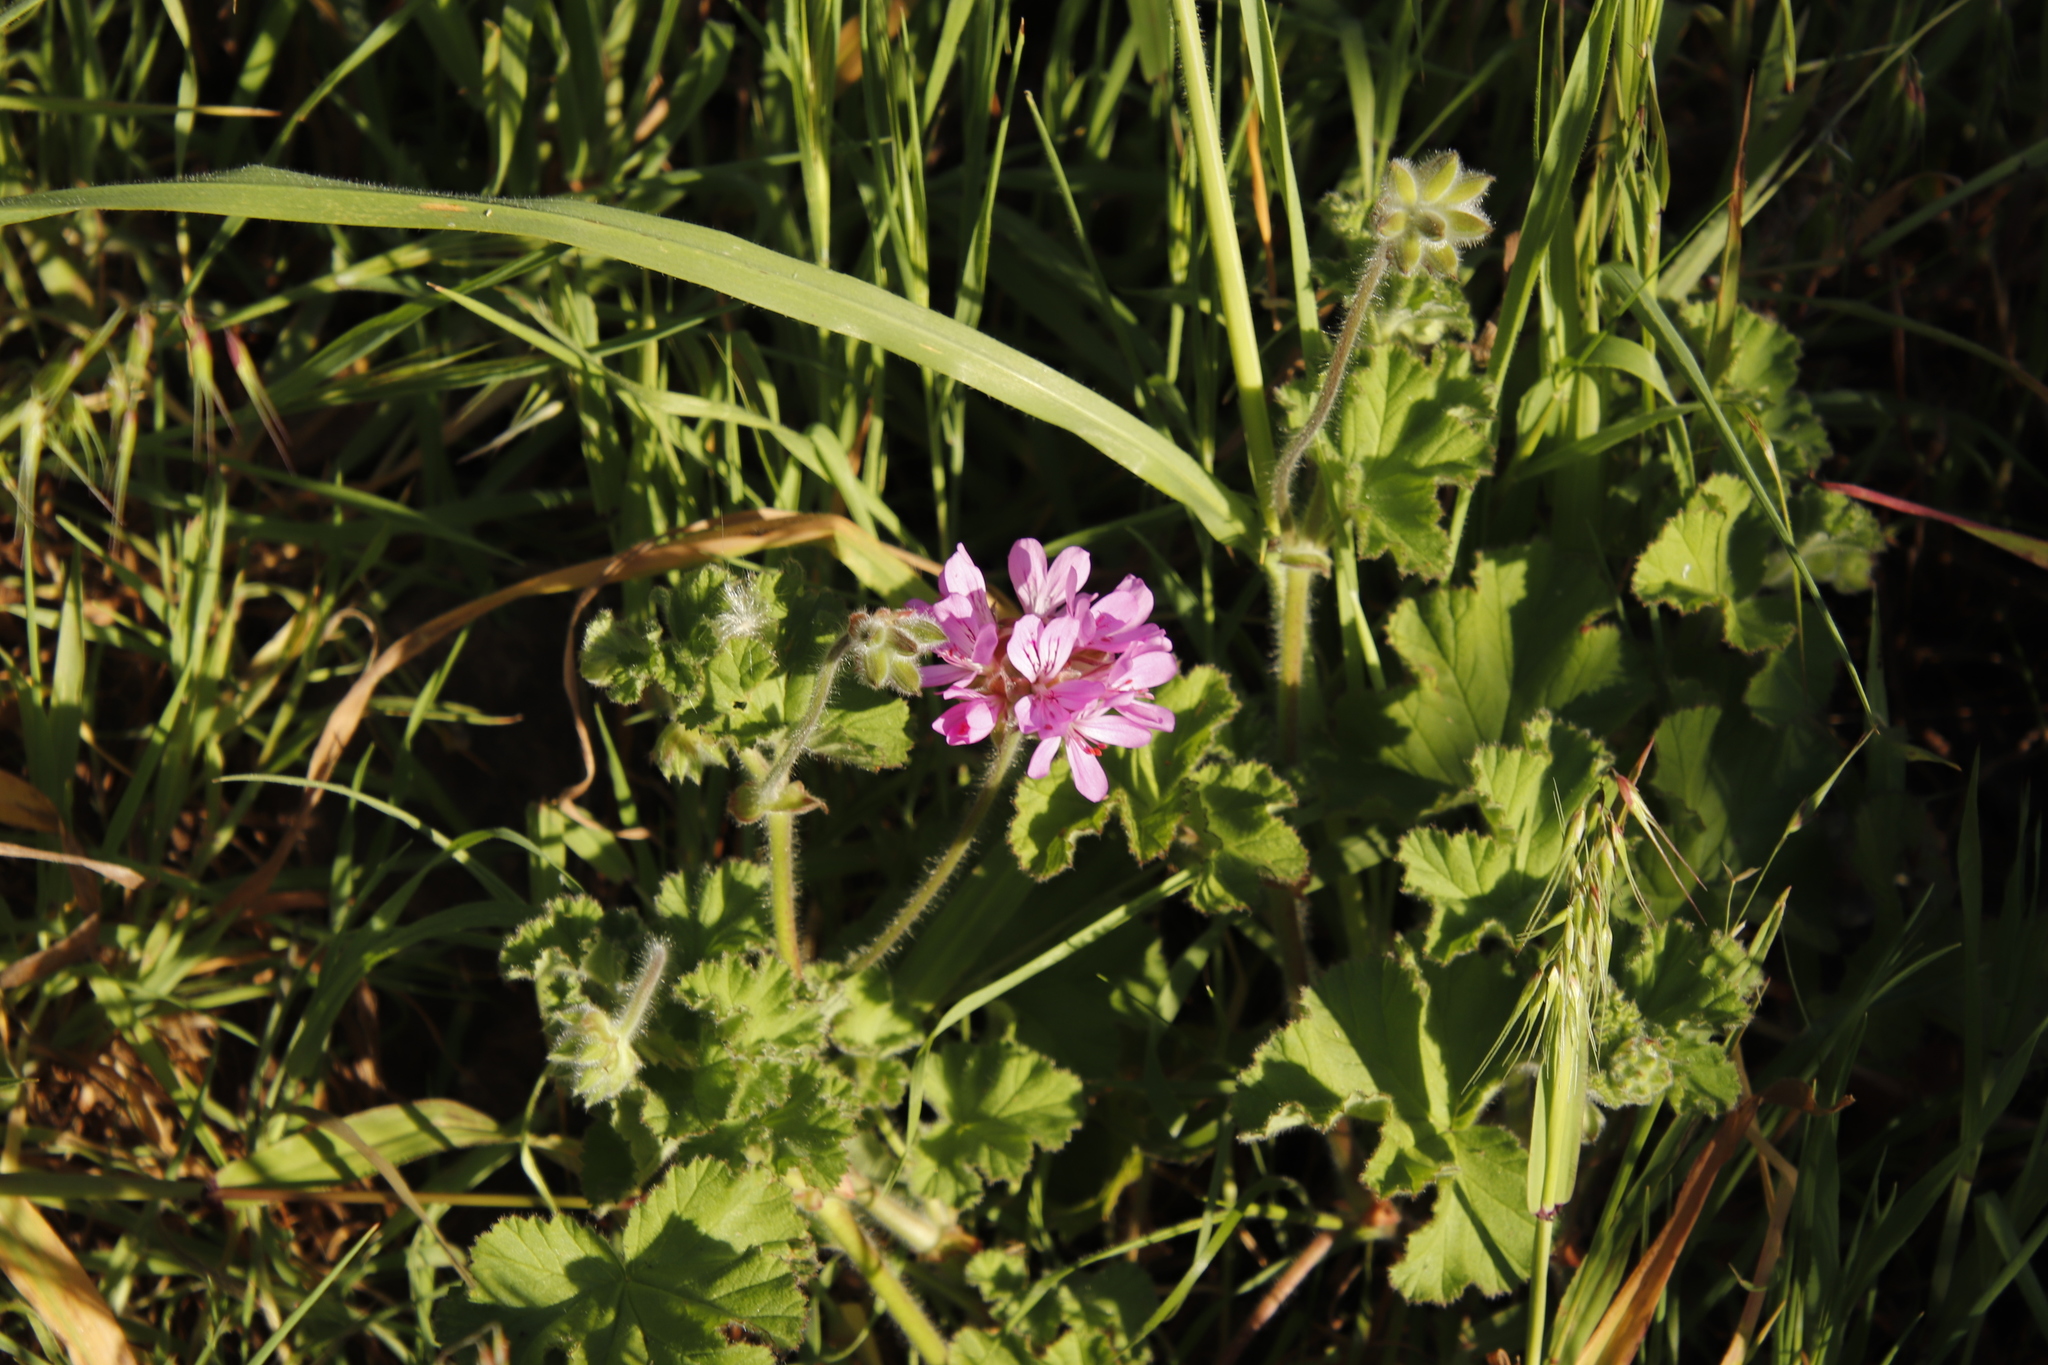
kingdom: Plantae
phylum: Tracheophyta
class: Magnoliopsida
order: Geraniales
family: Geraniaceae
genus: Pelargonium
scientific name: Pelargonium capitatum
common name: Rose scented geranium
